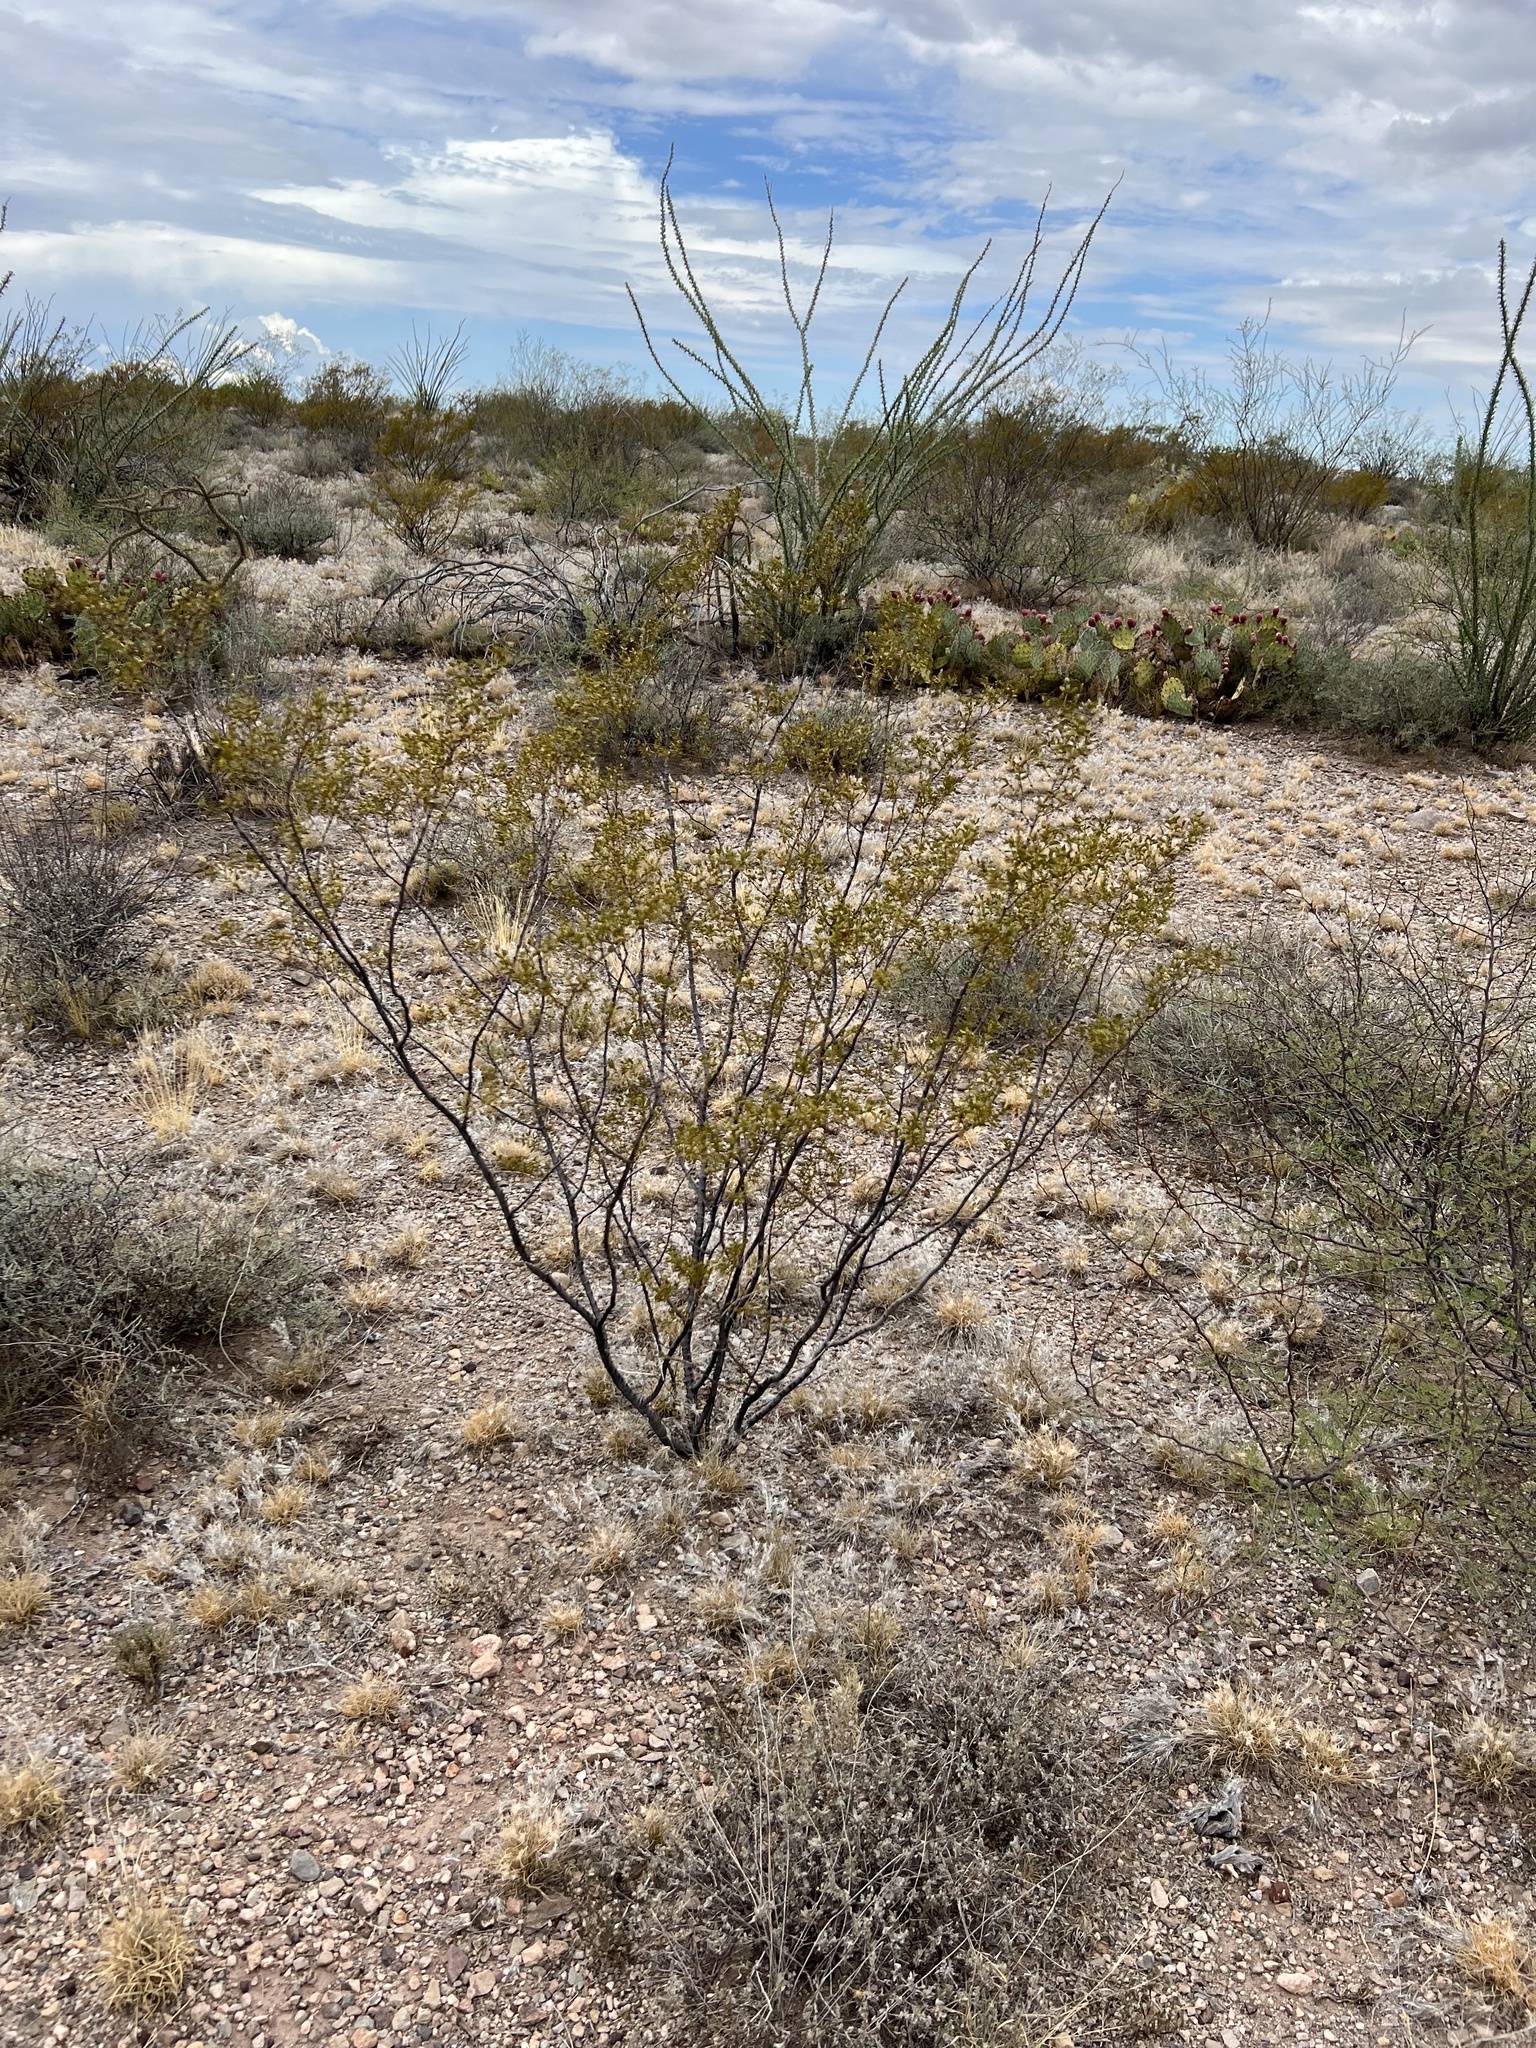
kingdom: Plantae
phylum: Tracheophyta
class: Magnoliopsida
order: Zygophyllales
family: Zygophyllaceae
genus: Larrea
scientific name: Larrea tridentata
